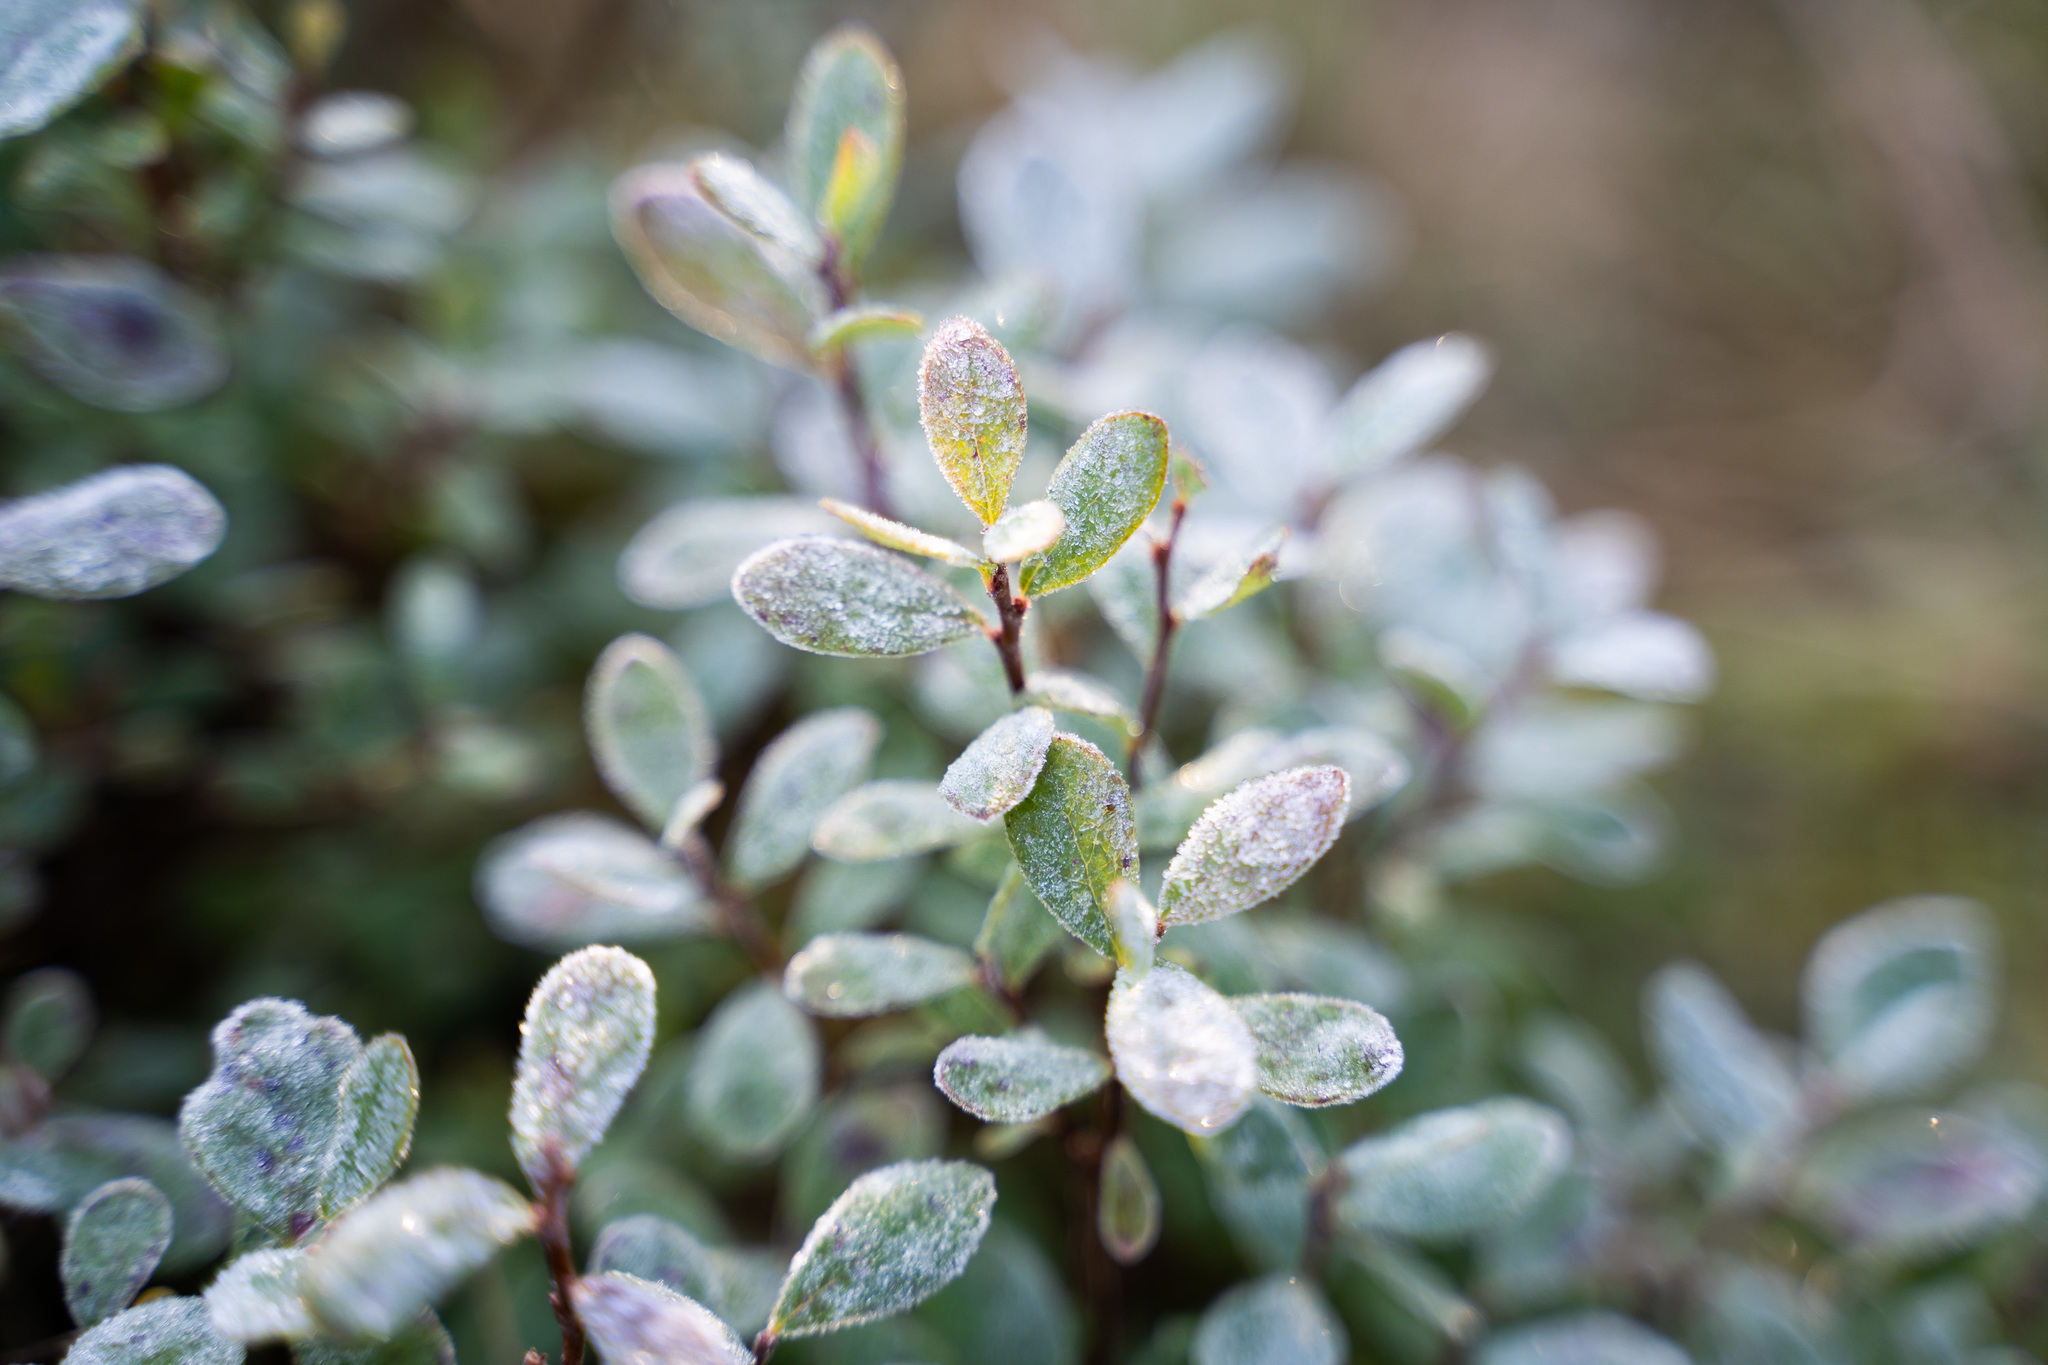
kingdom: Plantae
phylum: Tracheophyta
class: Magnoliopsida
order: Ericales
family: Ericaceae
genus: Vaccinium
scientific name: Vaccinium uliginosum
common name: Bog bilberry
